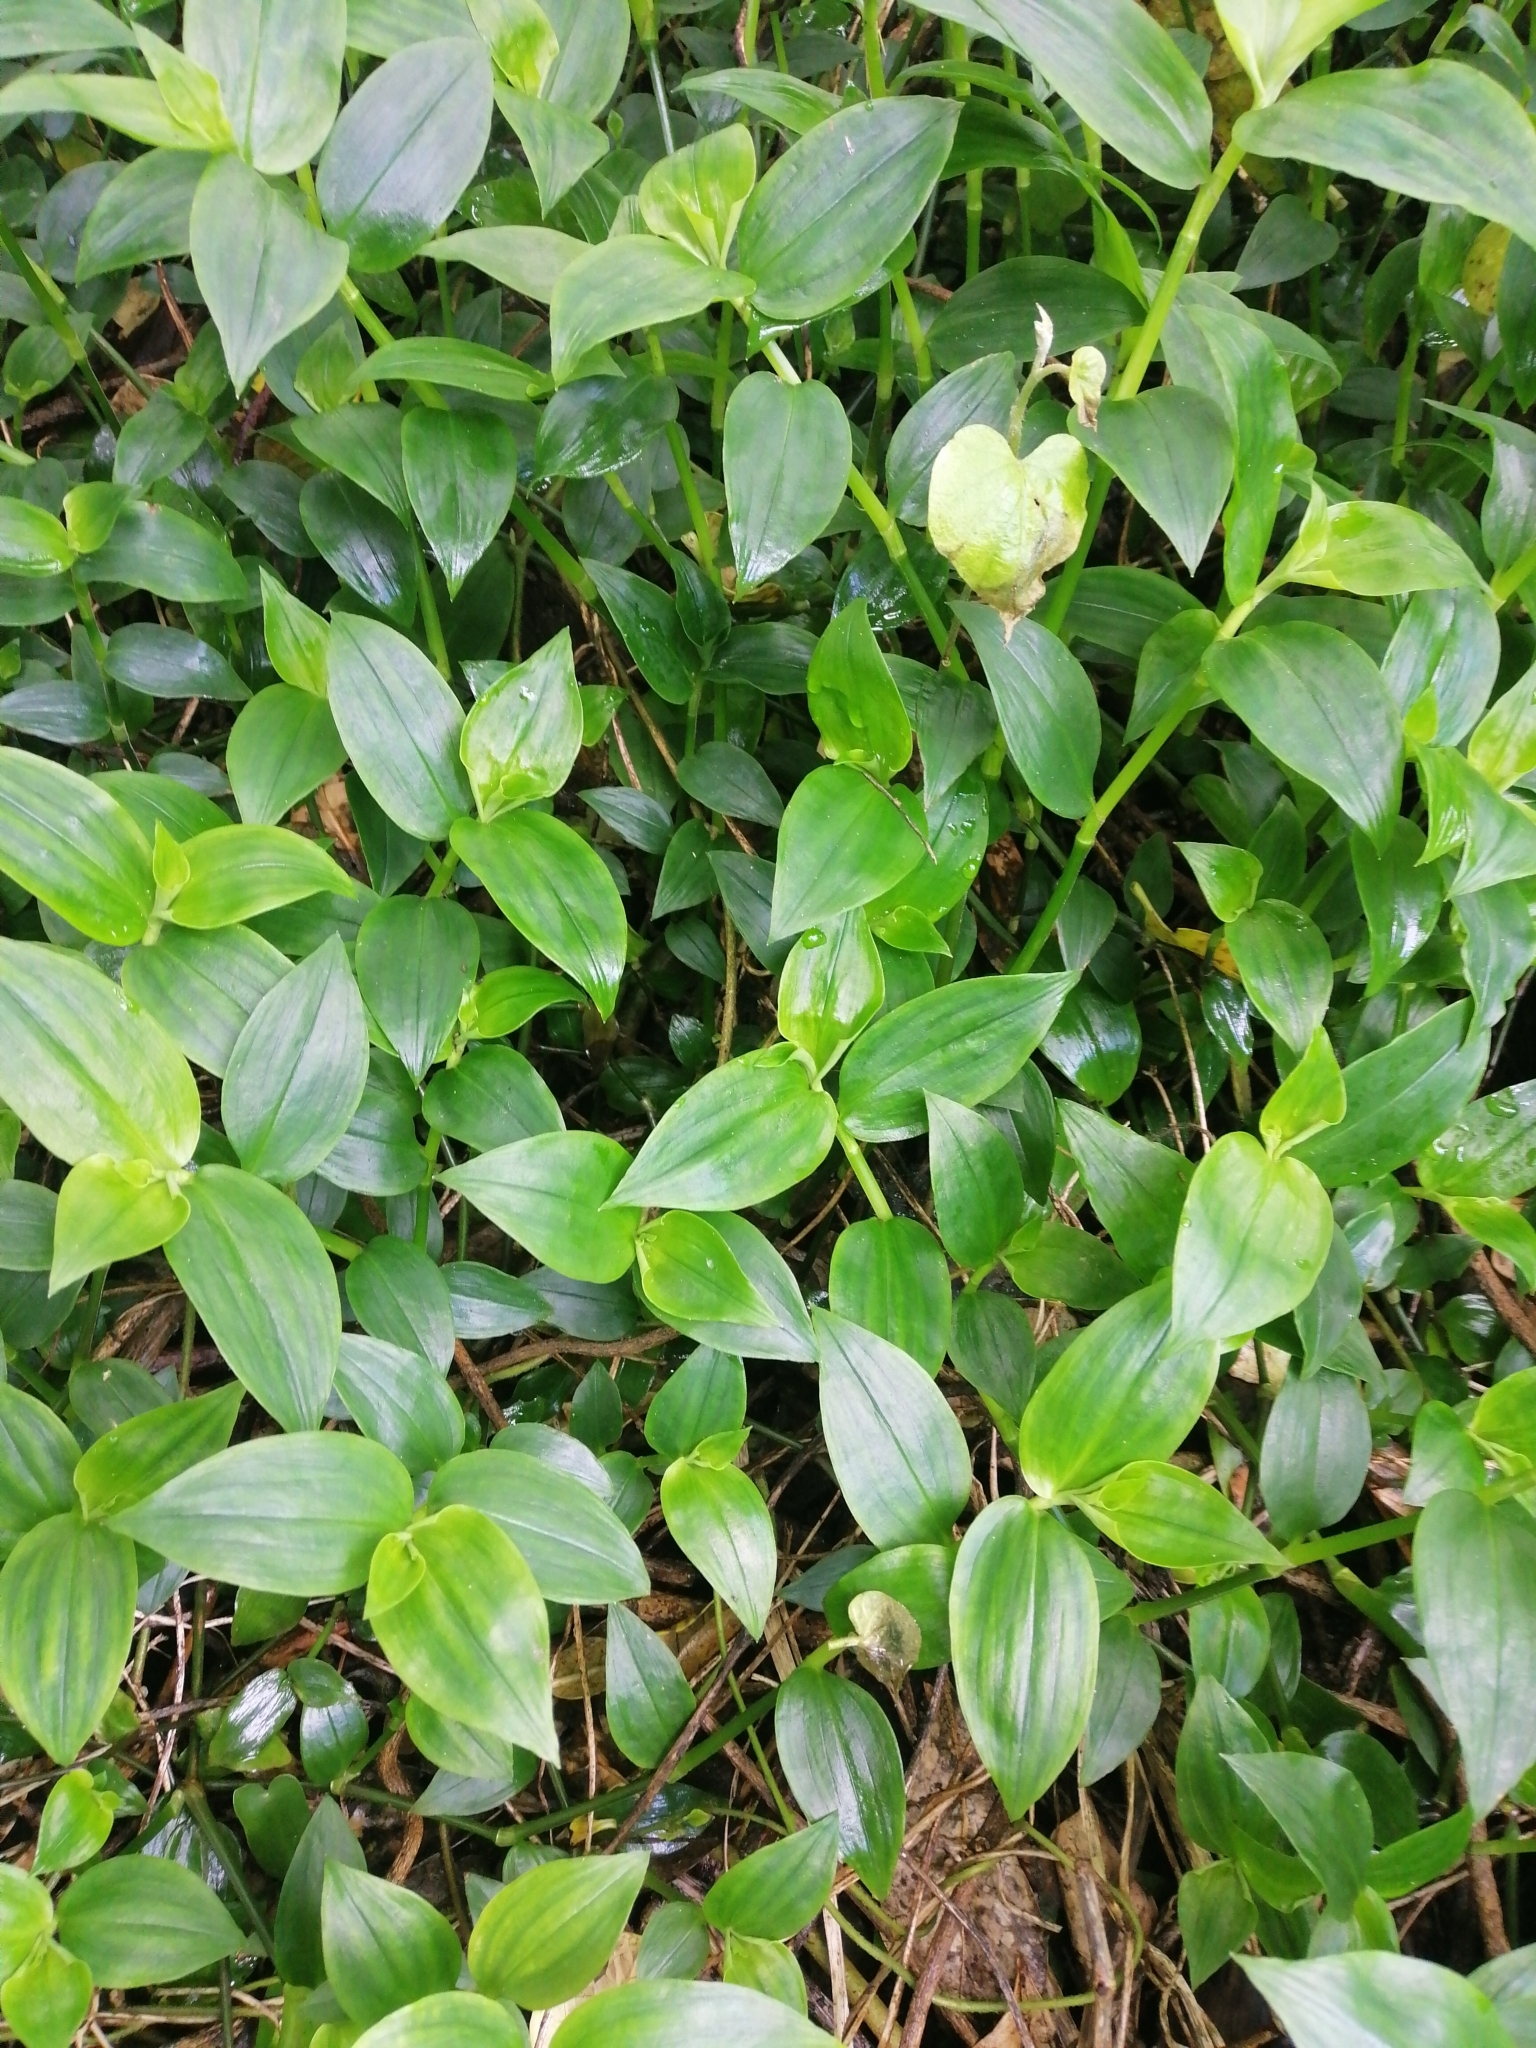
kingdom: Plantae
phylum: Tracheophyta
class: Liliopsida
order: Commelinales
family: Commelinaceae
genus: Tradescantia
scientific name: Tradescantia fluminensis
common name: Wandering-jew
